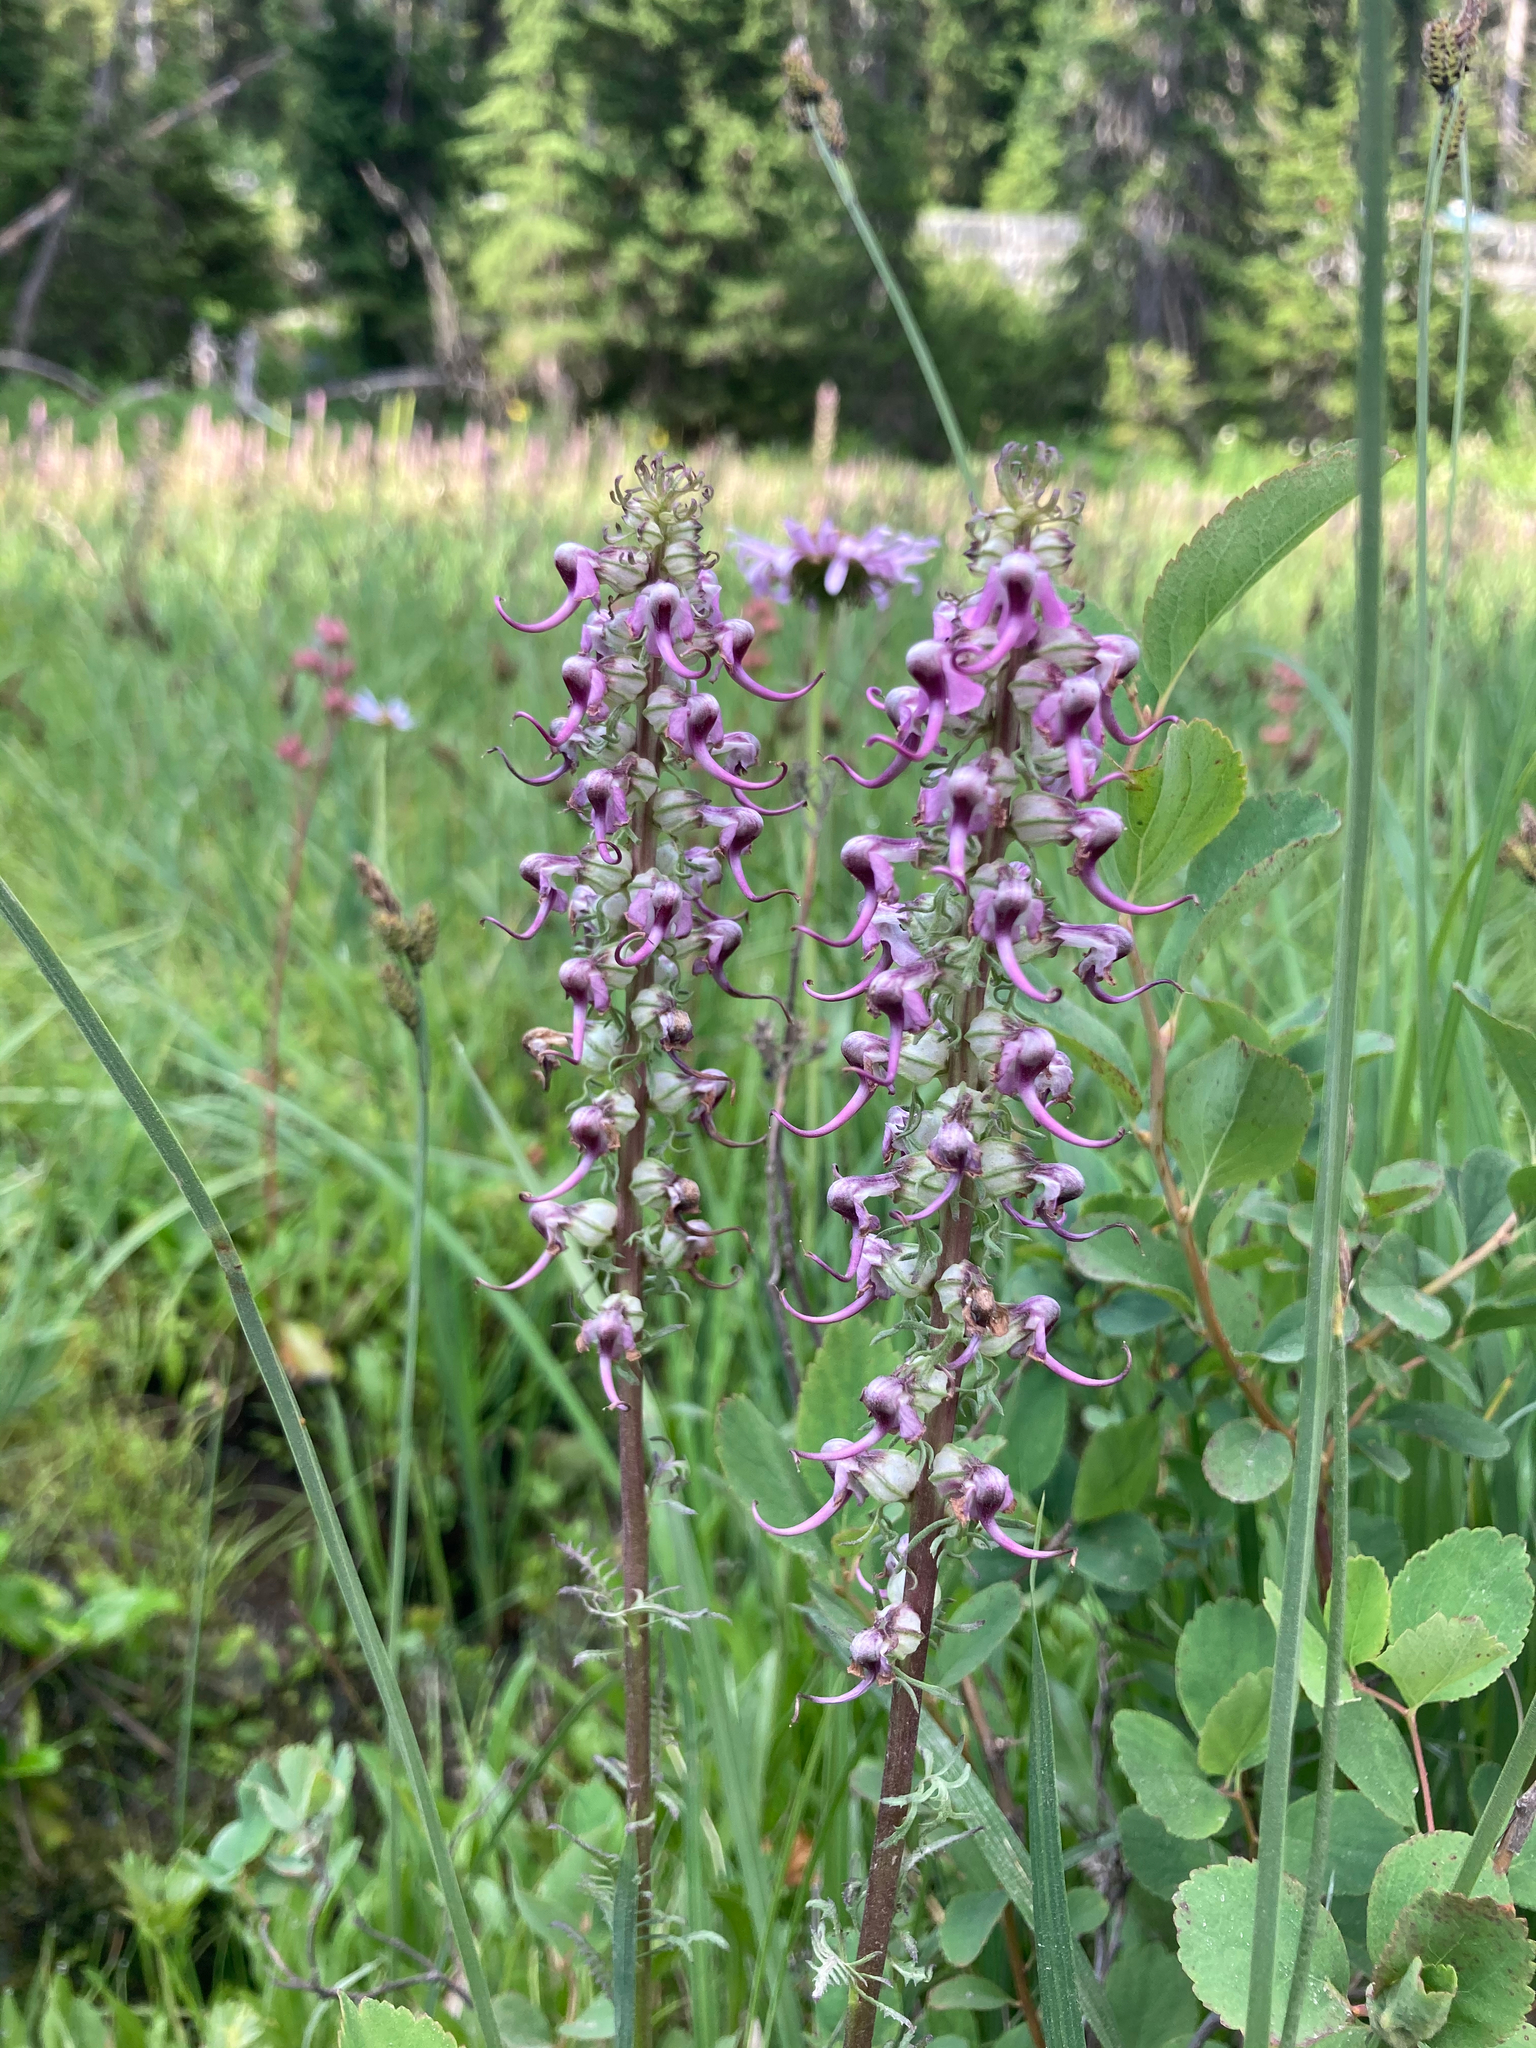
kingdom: Plantae
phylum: Tracheophyta
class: Magnoliopsida
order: Lamiales
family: Orobanchaceae
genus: Pedicularis
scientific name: Pedicularis groenlandica
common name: Elephant's-head
